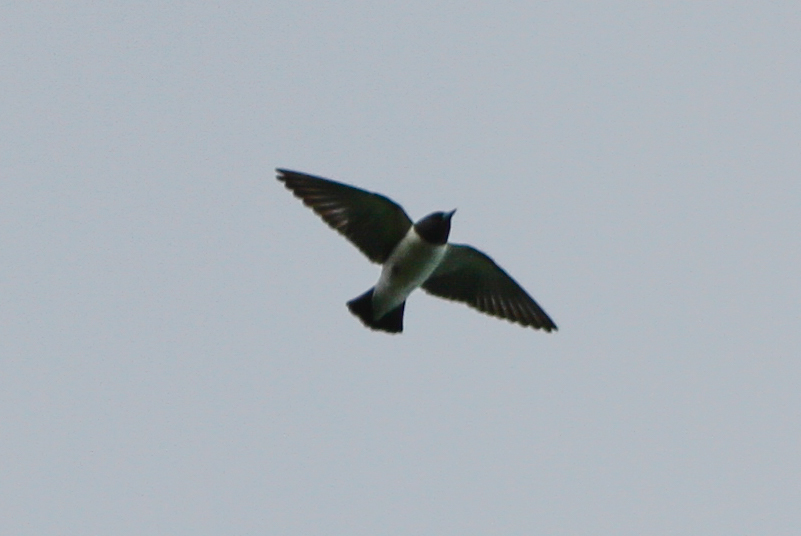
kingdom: Animalia
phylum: Chordata
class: Aves
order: Passeriformes
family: Artamidae
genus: Artamus
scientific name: Artamus leucoryn
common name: White-breasted woodswallow
